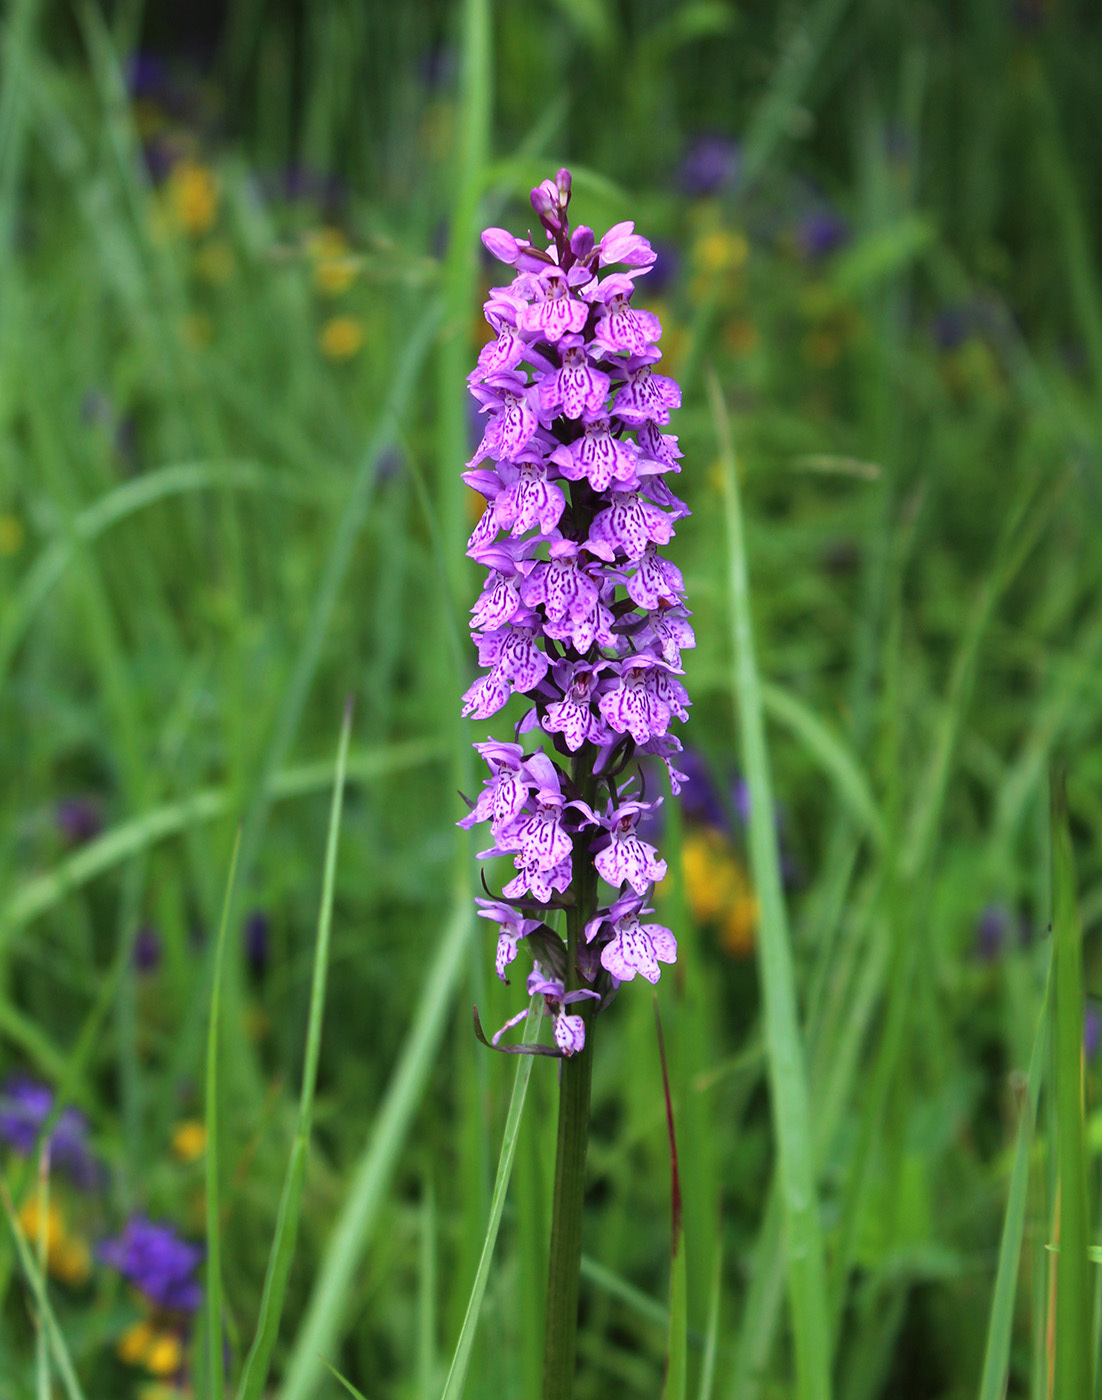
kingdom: Plantae
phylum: Tracheophyta
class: Liliopsida
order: Asparagales
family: Orchidaceae
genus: Dactylorhiza
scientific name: Dactylorhiza majalis
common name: Marsh orchid
